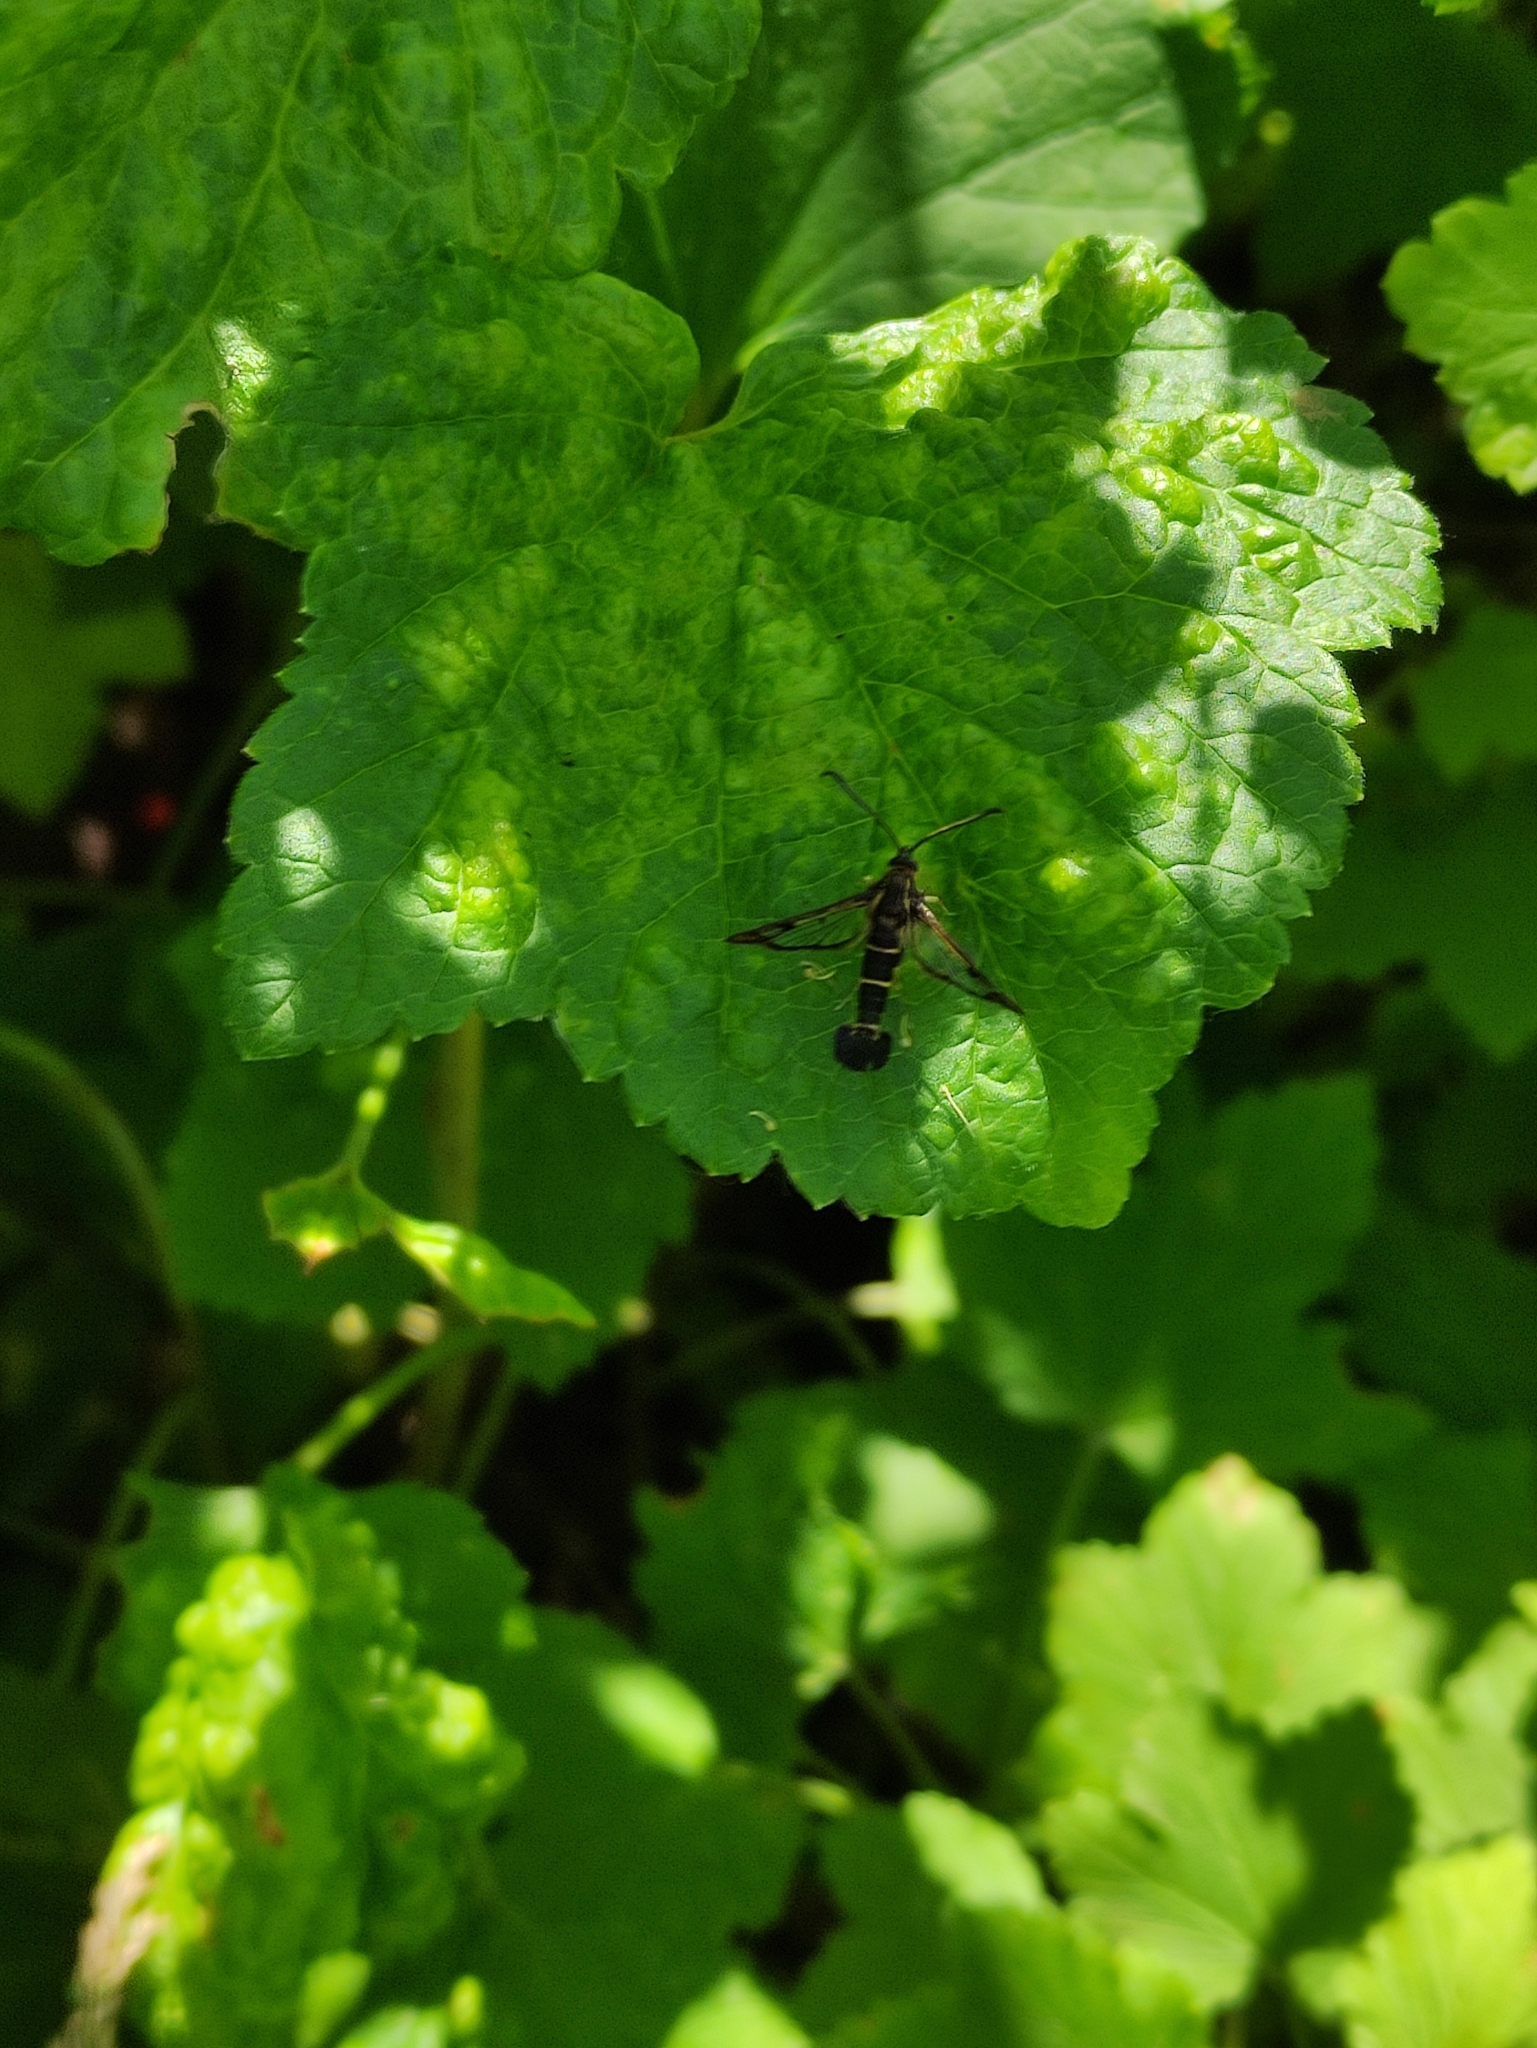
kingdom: Animalia
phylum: Arthropoda
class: Insecta
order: Lepidoptera
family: Sesiidae
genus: Synanthedon
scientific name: Synanthedon tipuliformis
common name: Currant clearwing
